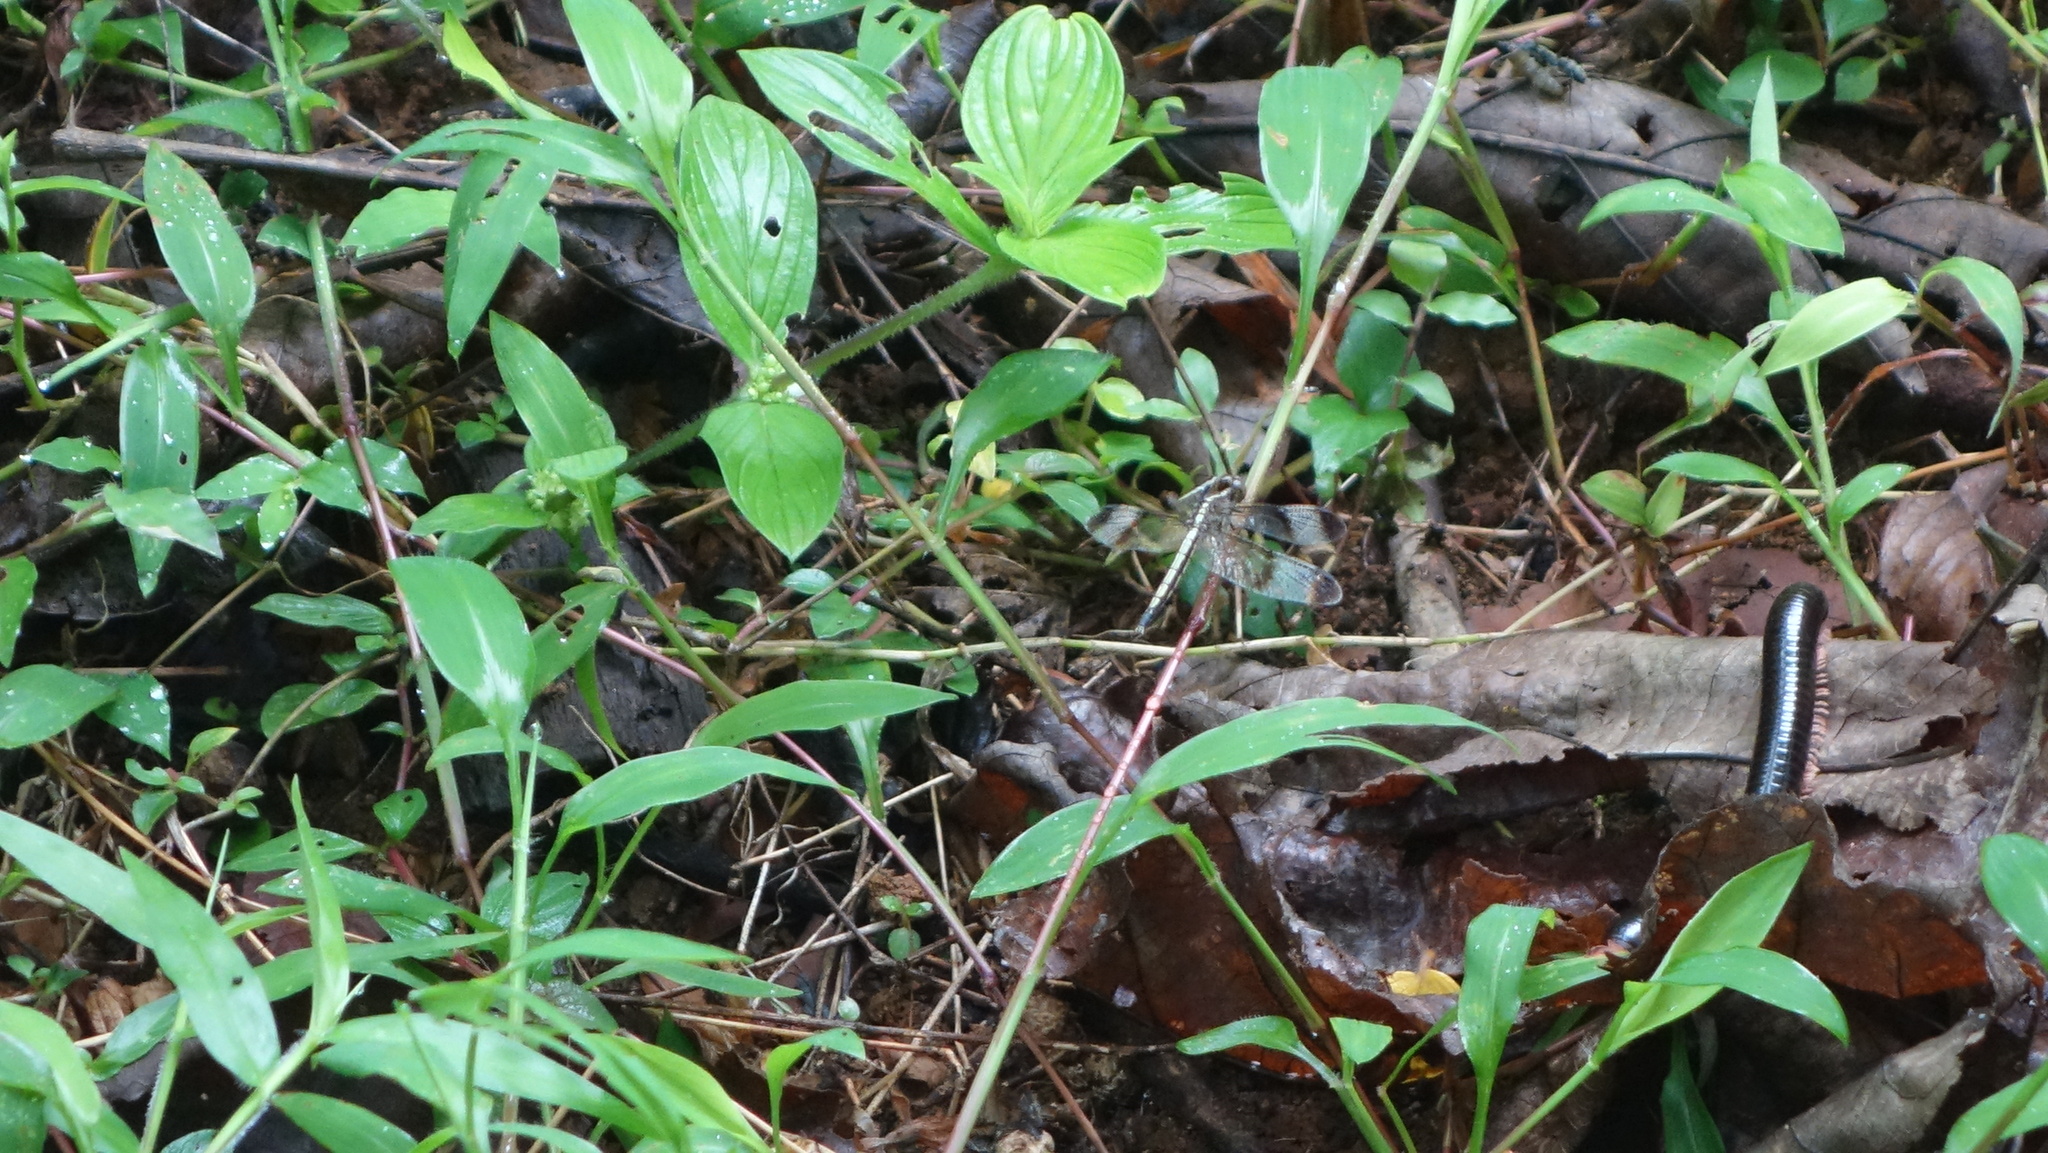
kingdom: Animalia
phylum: Arthropoda
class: Diplopoda
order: Spirostreptida
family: Harpagophoridae
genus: Phyllogonostreptus
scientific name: Phyllogonostreptus nigrolabiatus
